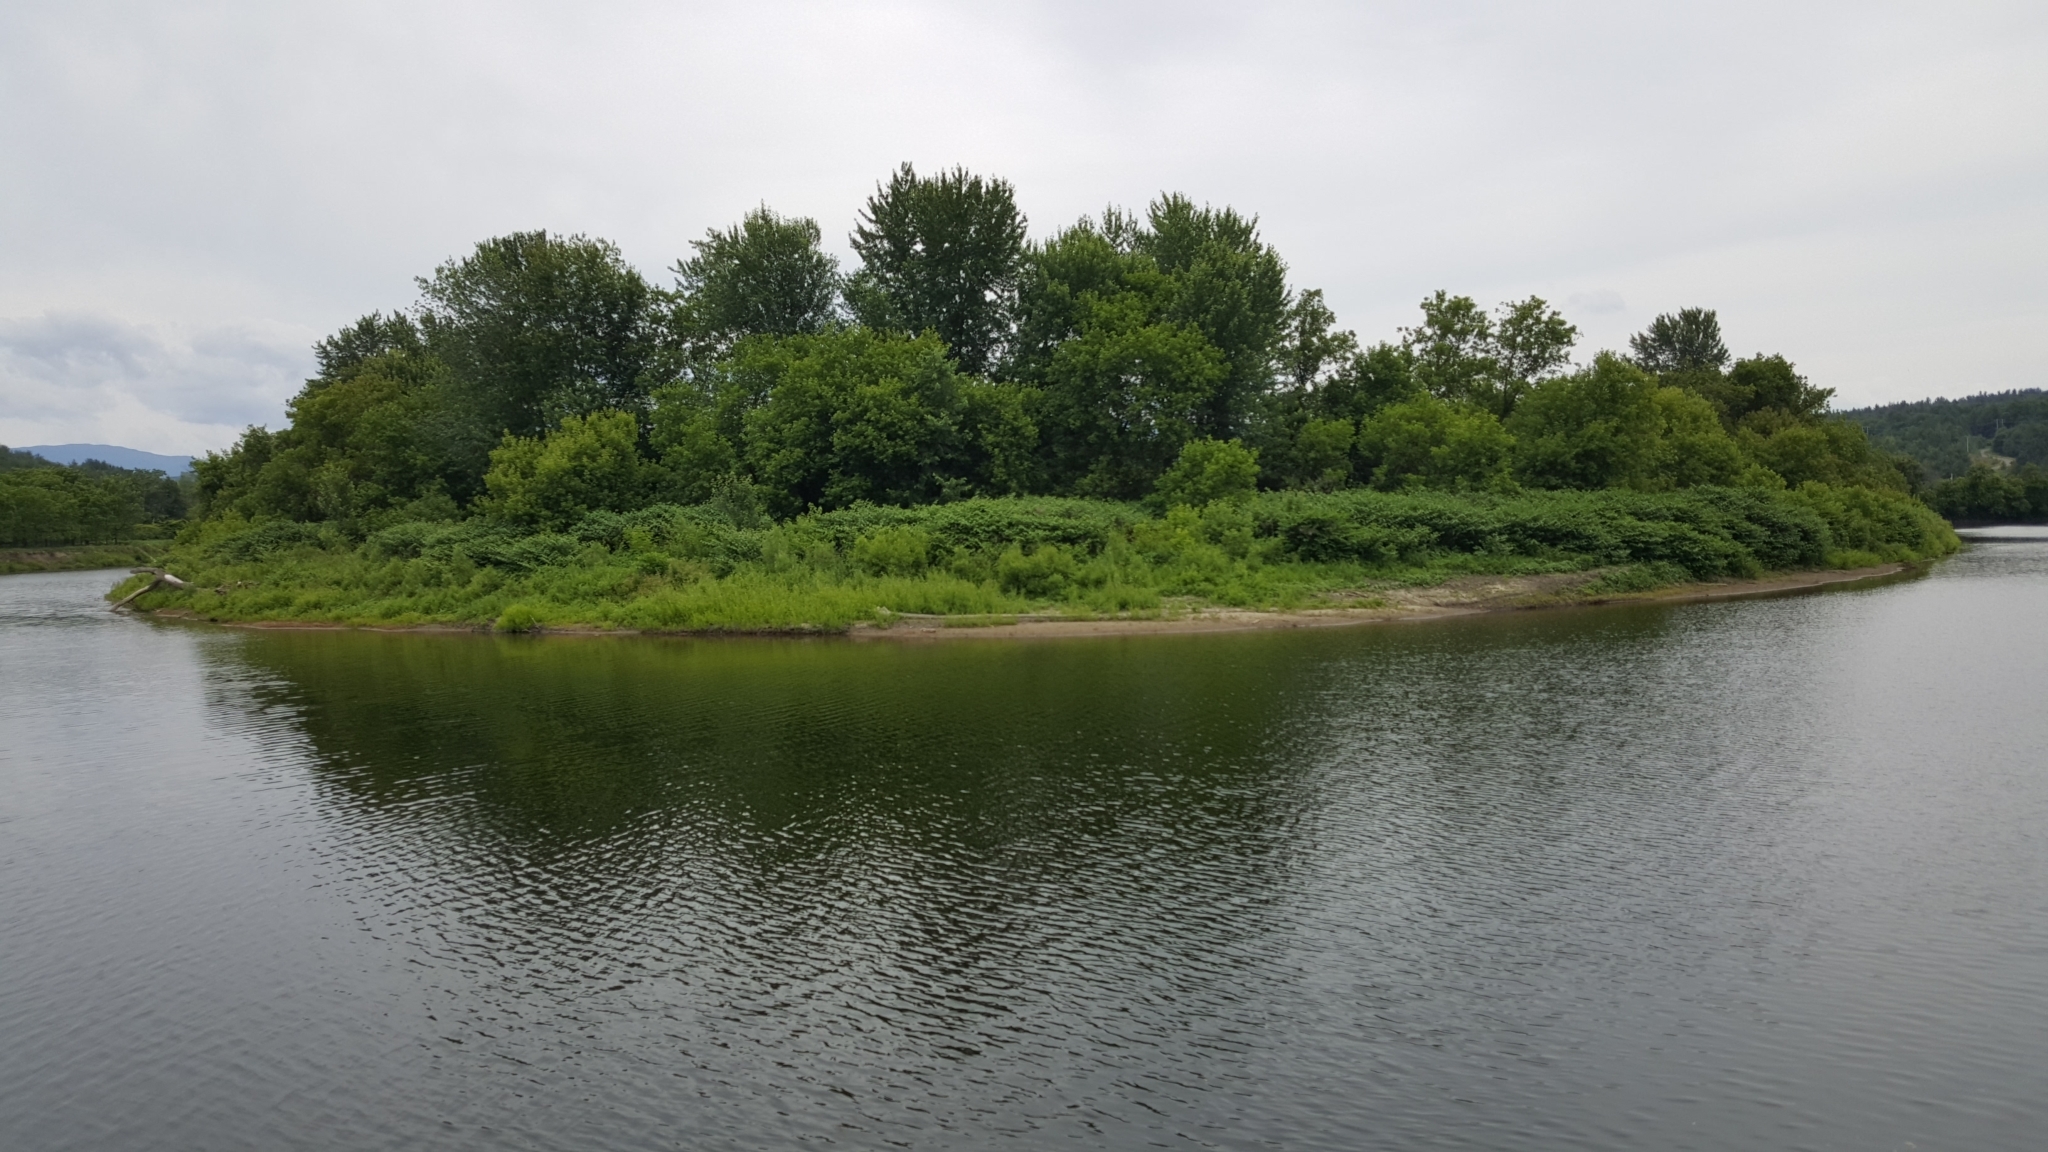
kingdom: Plantae
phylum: Tracheophyta
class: Magnoliopsida
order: Caryophyllales
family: Polygonaceae
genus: Reynoutria
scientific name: Reynoutria japonica
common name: Japanese knotweed
